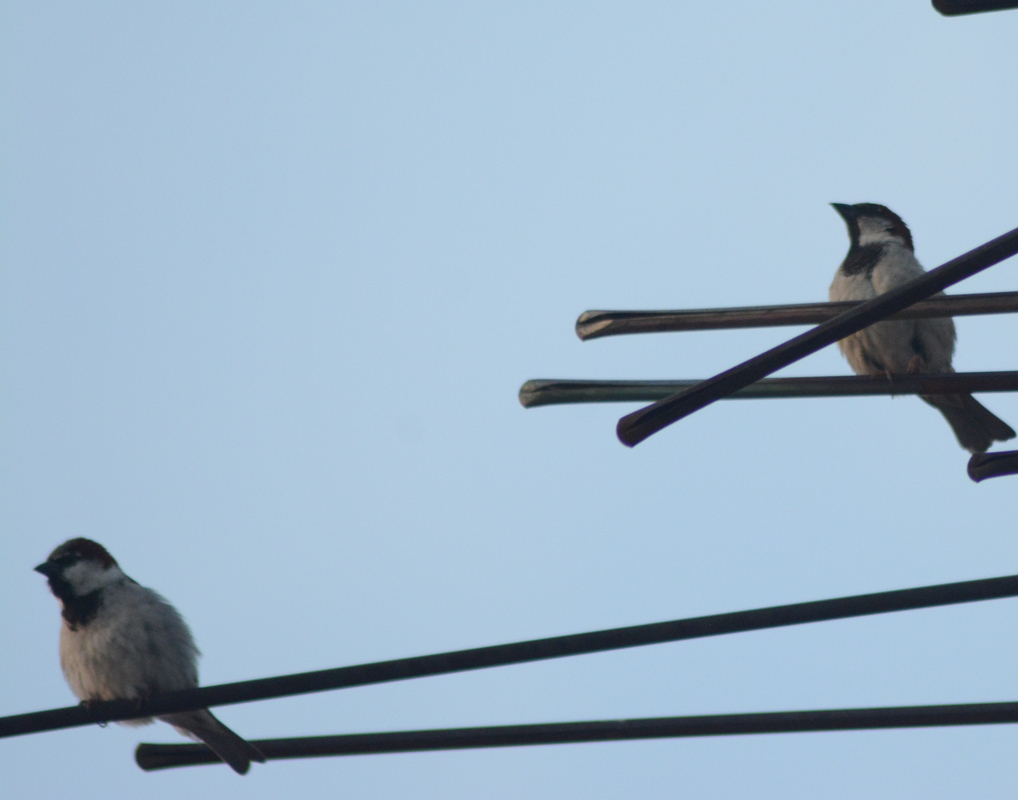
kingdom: Animalia
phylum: Chordata
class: Aves
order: Passeriformes
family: Passeridae
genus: Passer
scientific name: Passer domesticus
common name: House sparrow
